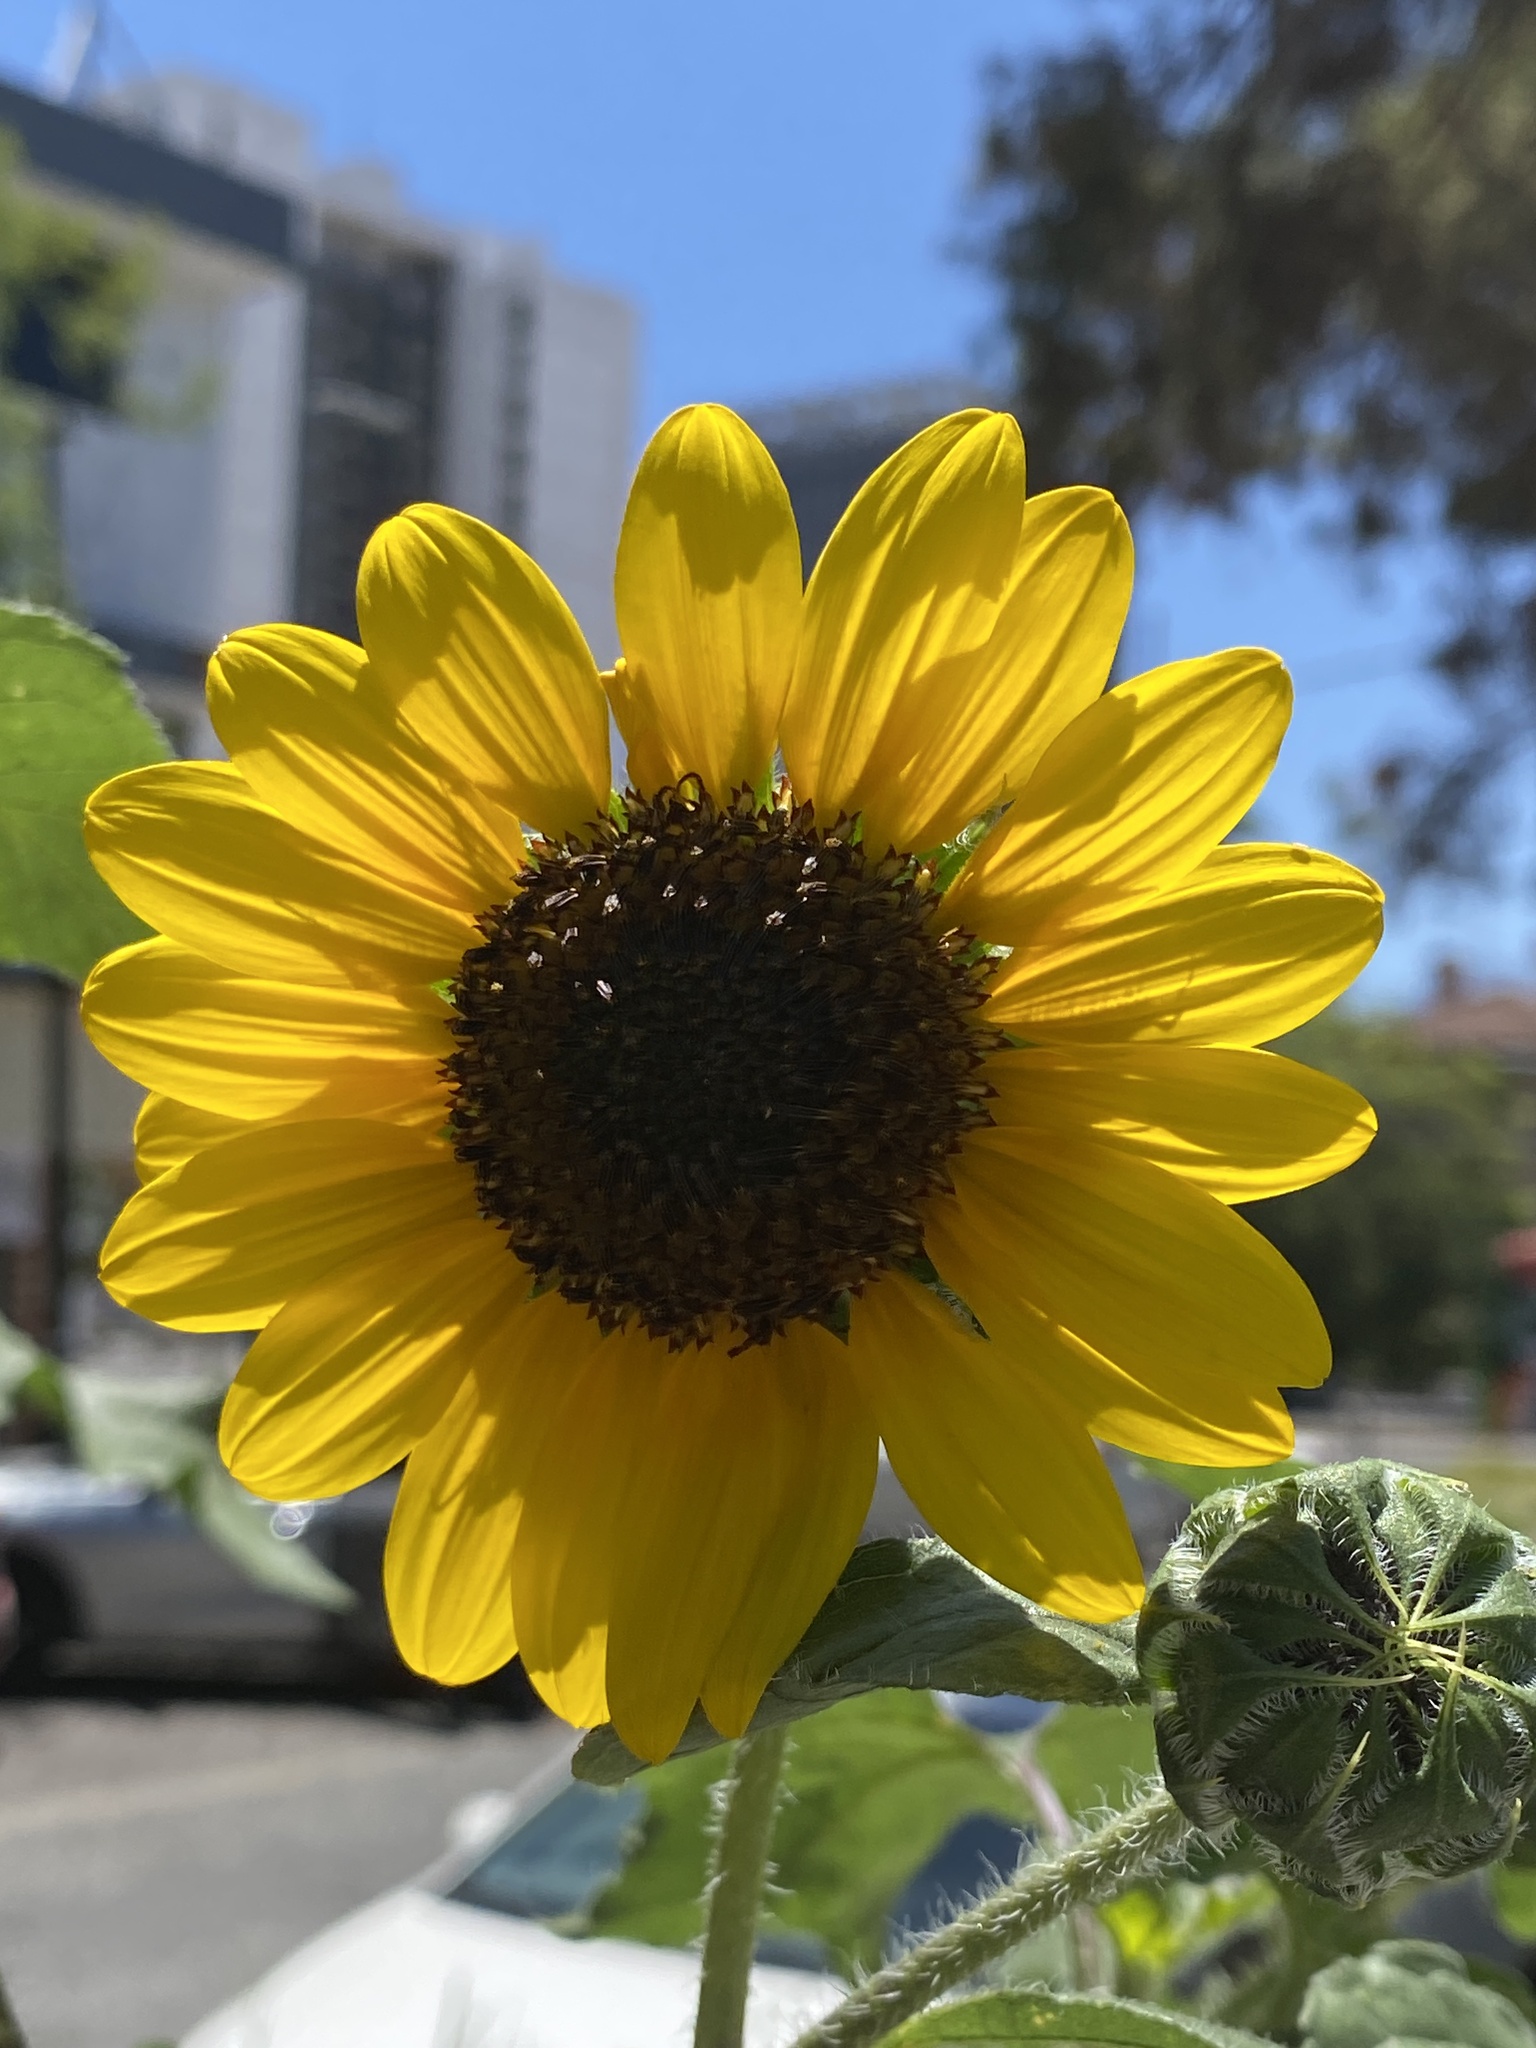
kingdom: Plantae
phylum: Tracheophyta
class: Magnoliopsida
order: Asterales
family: Asteraceae
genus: Helianthus
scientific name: Helianthus annuus
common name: Sunflower
